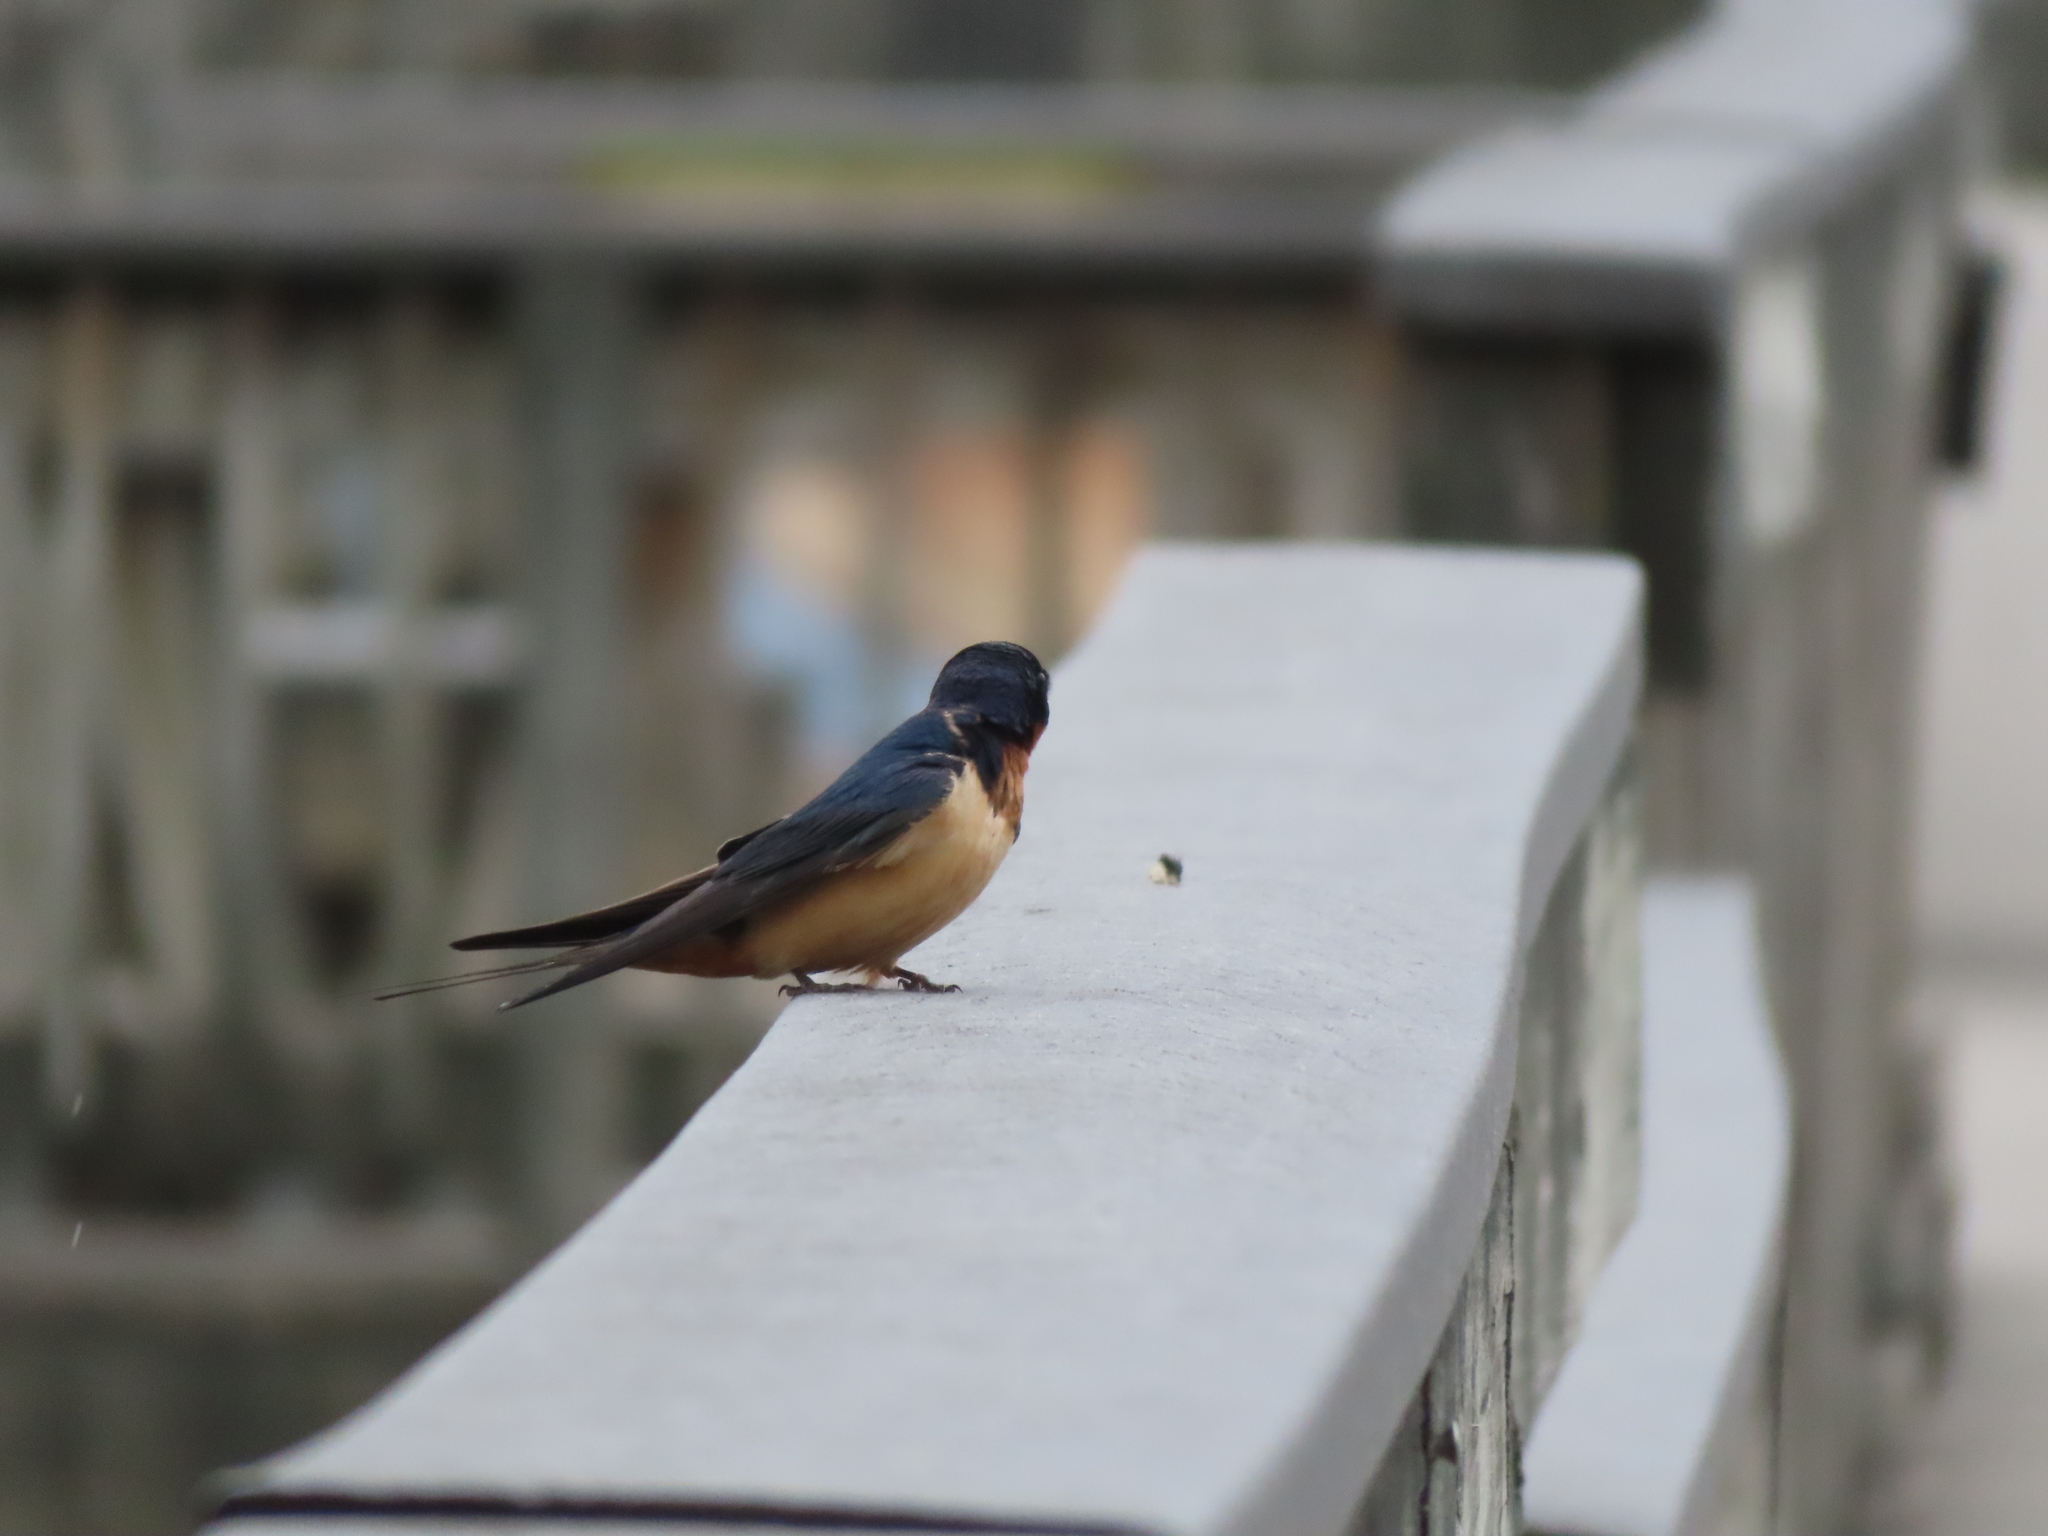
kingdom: Animalia
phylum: Chordata
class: Aves
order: Passeriformes
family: Hirundinidae
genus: Hirundo
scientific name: Hirundo rustica
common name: Barn swallow
